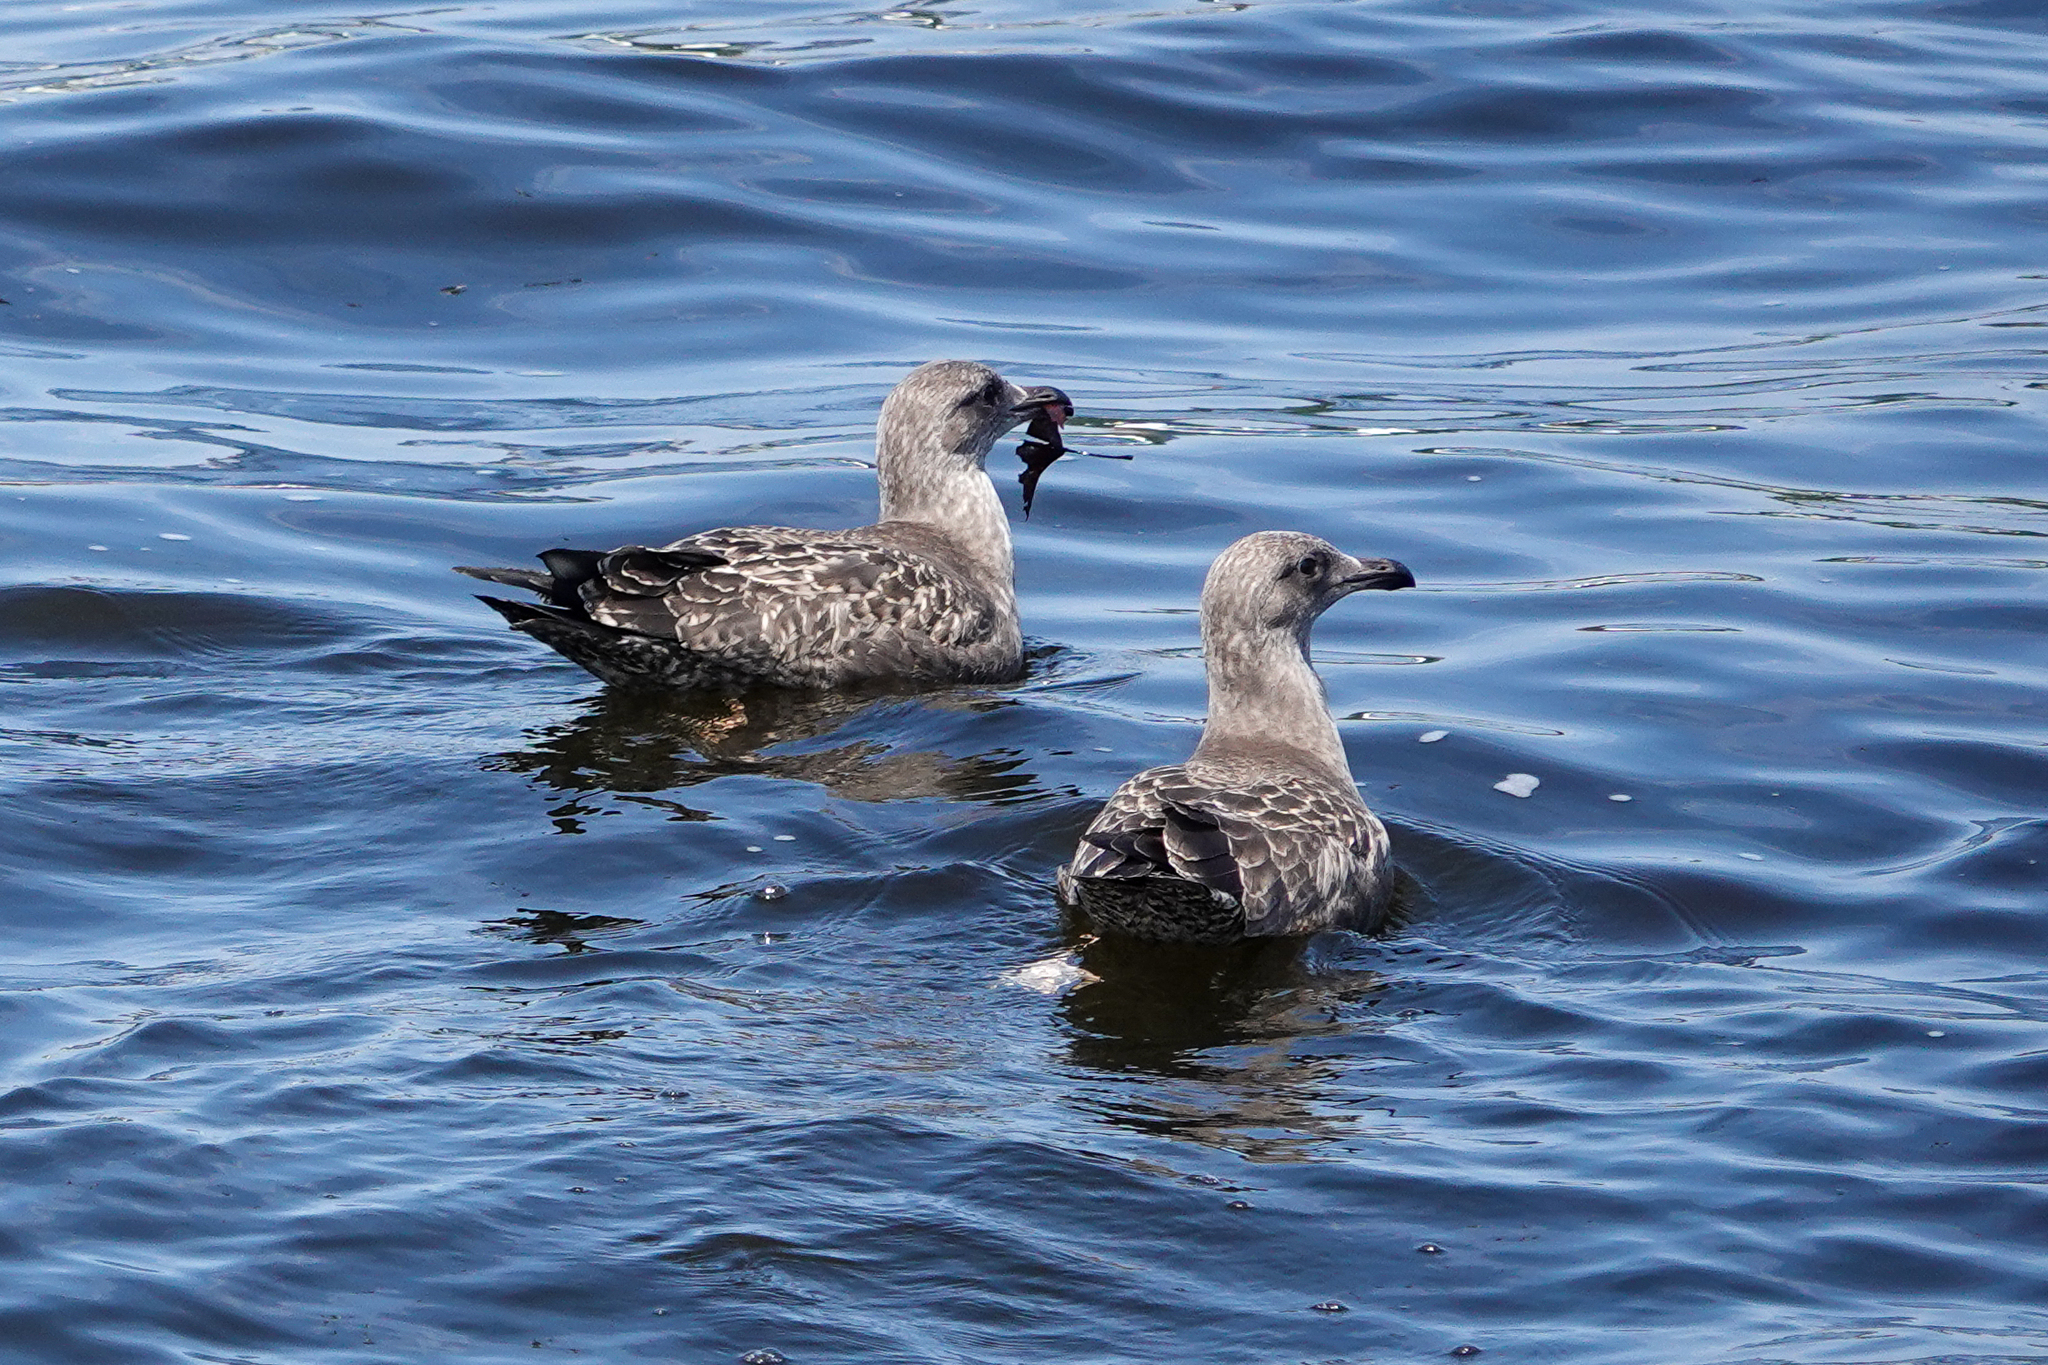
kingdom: Animalia
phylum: Chordata
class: Aves
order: Charadriiformes
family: Laridae
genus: Larus
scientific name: Larus argentatus
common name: Herring gull
